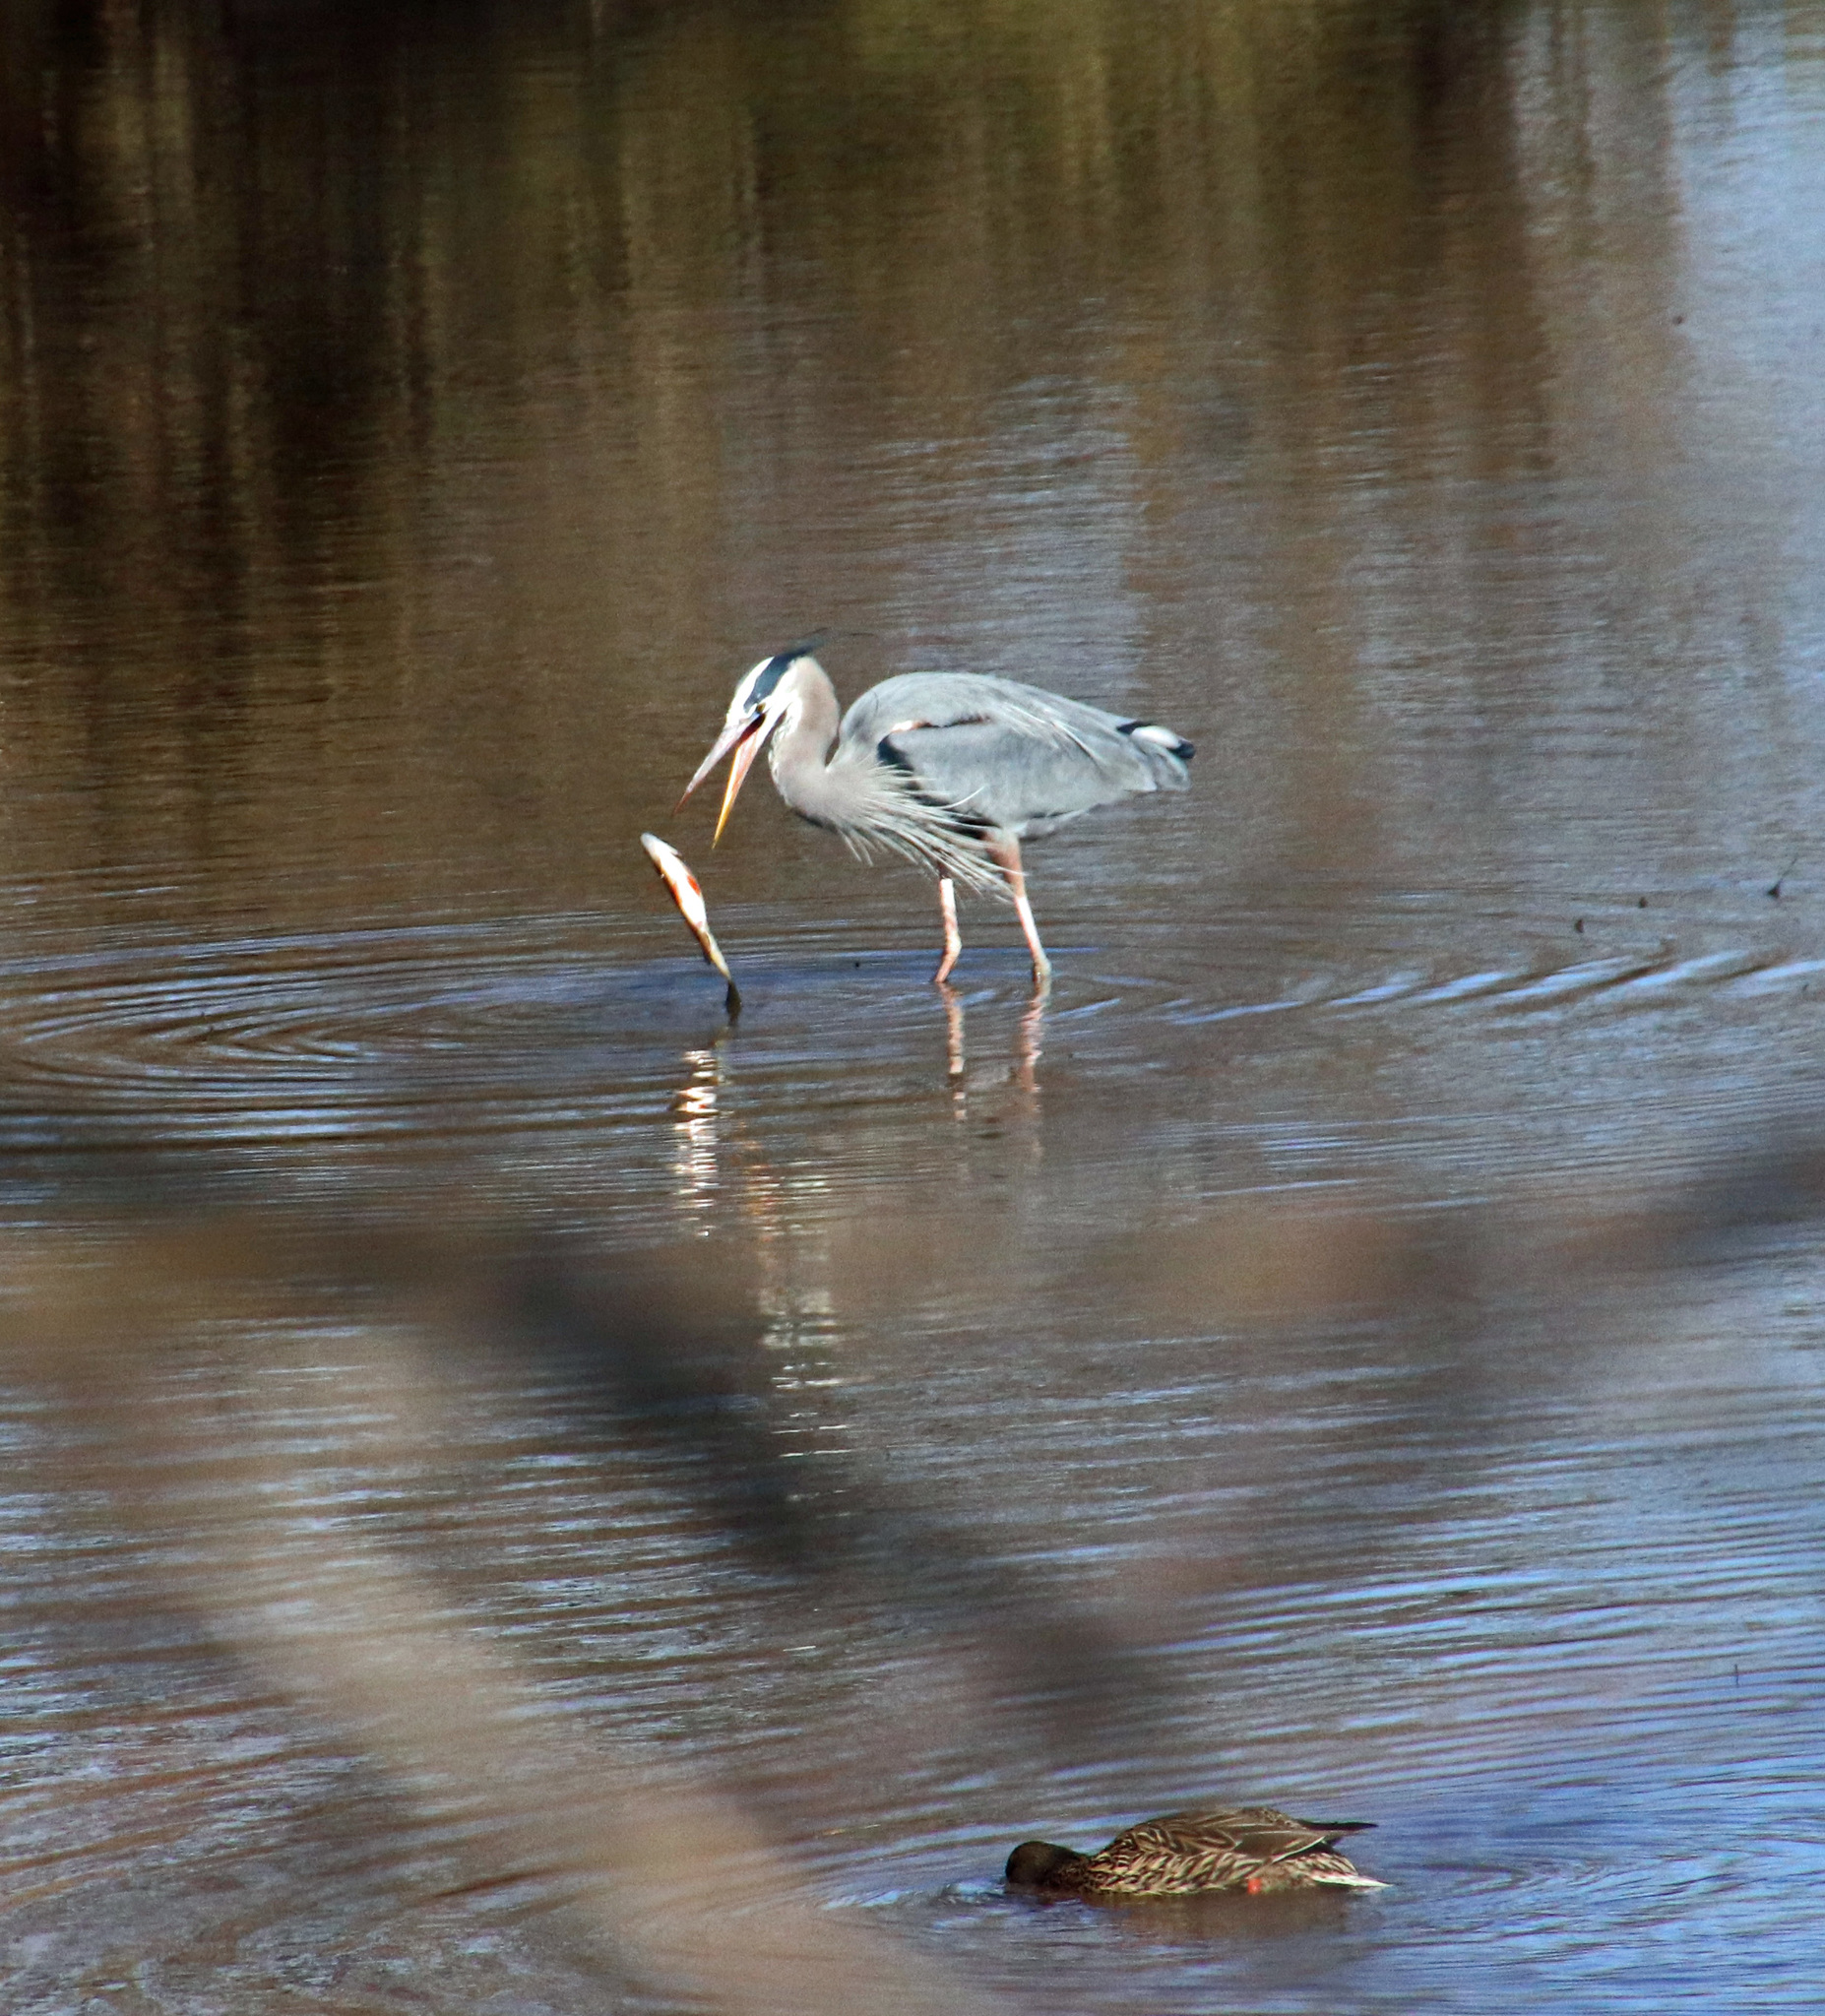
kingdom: Animalia
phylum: Chordata
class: Aves
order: Pelecaniformes
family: Ardeidae
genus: Ardea
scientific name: Ardea herodias
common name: Great blue heron
